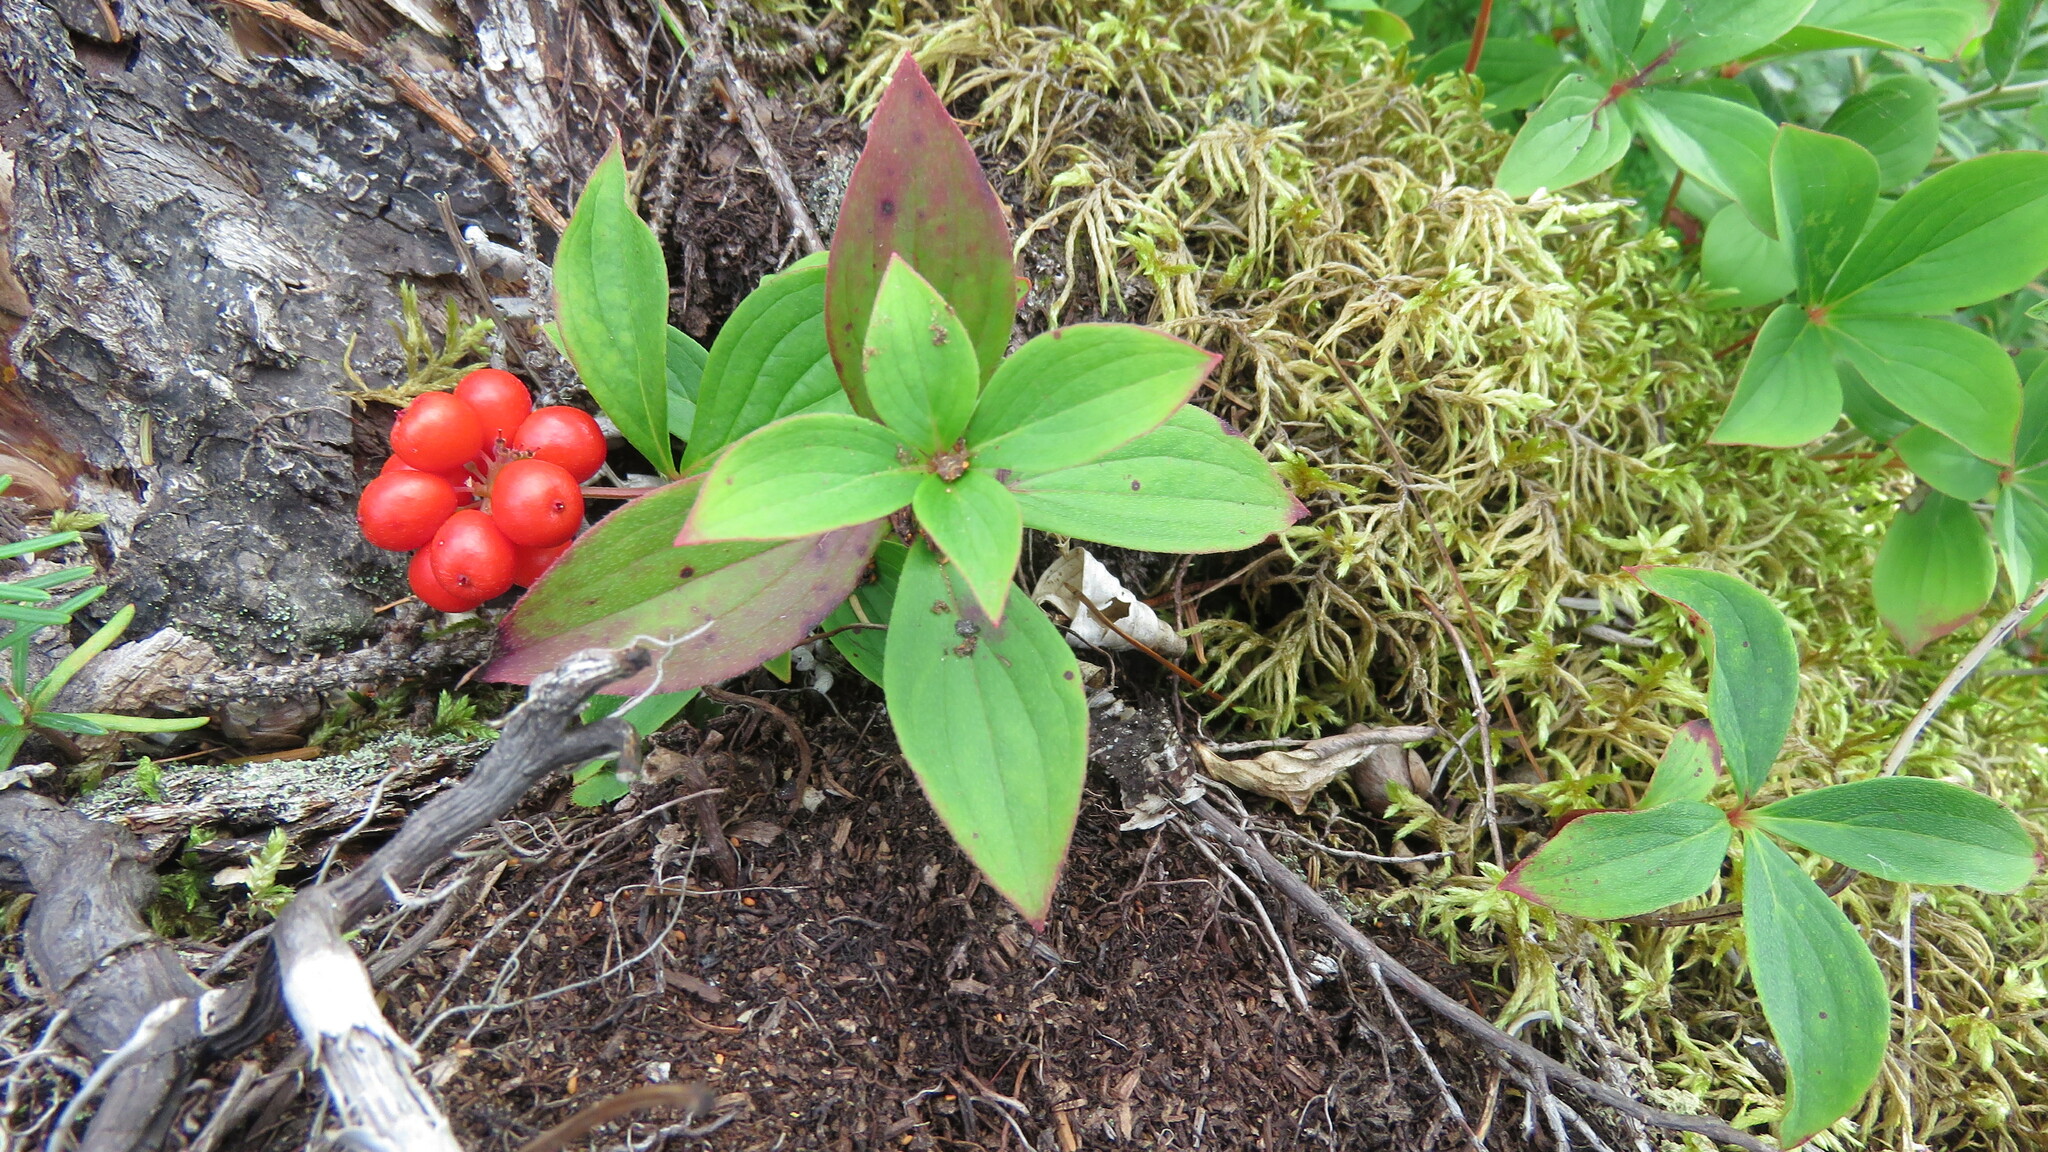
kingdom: Plantae
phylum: Tracheophyta
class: Magnoliopsida
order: Cornales
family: Cornaceae
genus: Cornus
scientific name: Cornus canadensis
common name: Creeping dogwood
